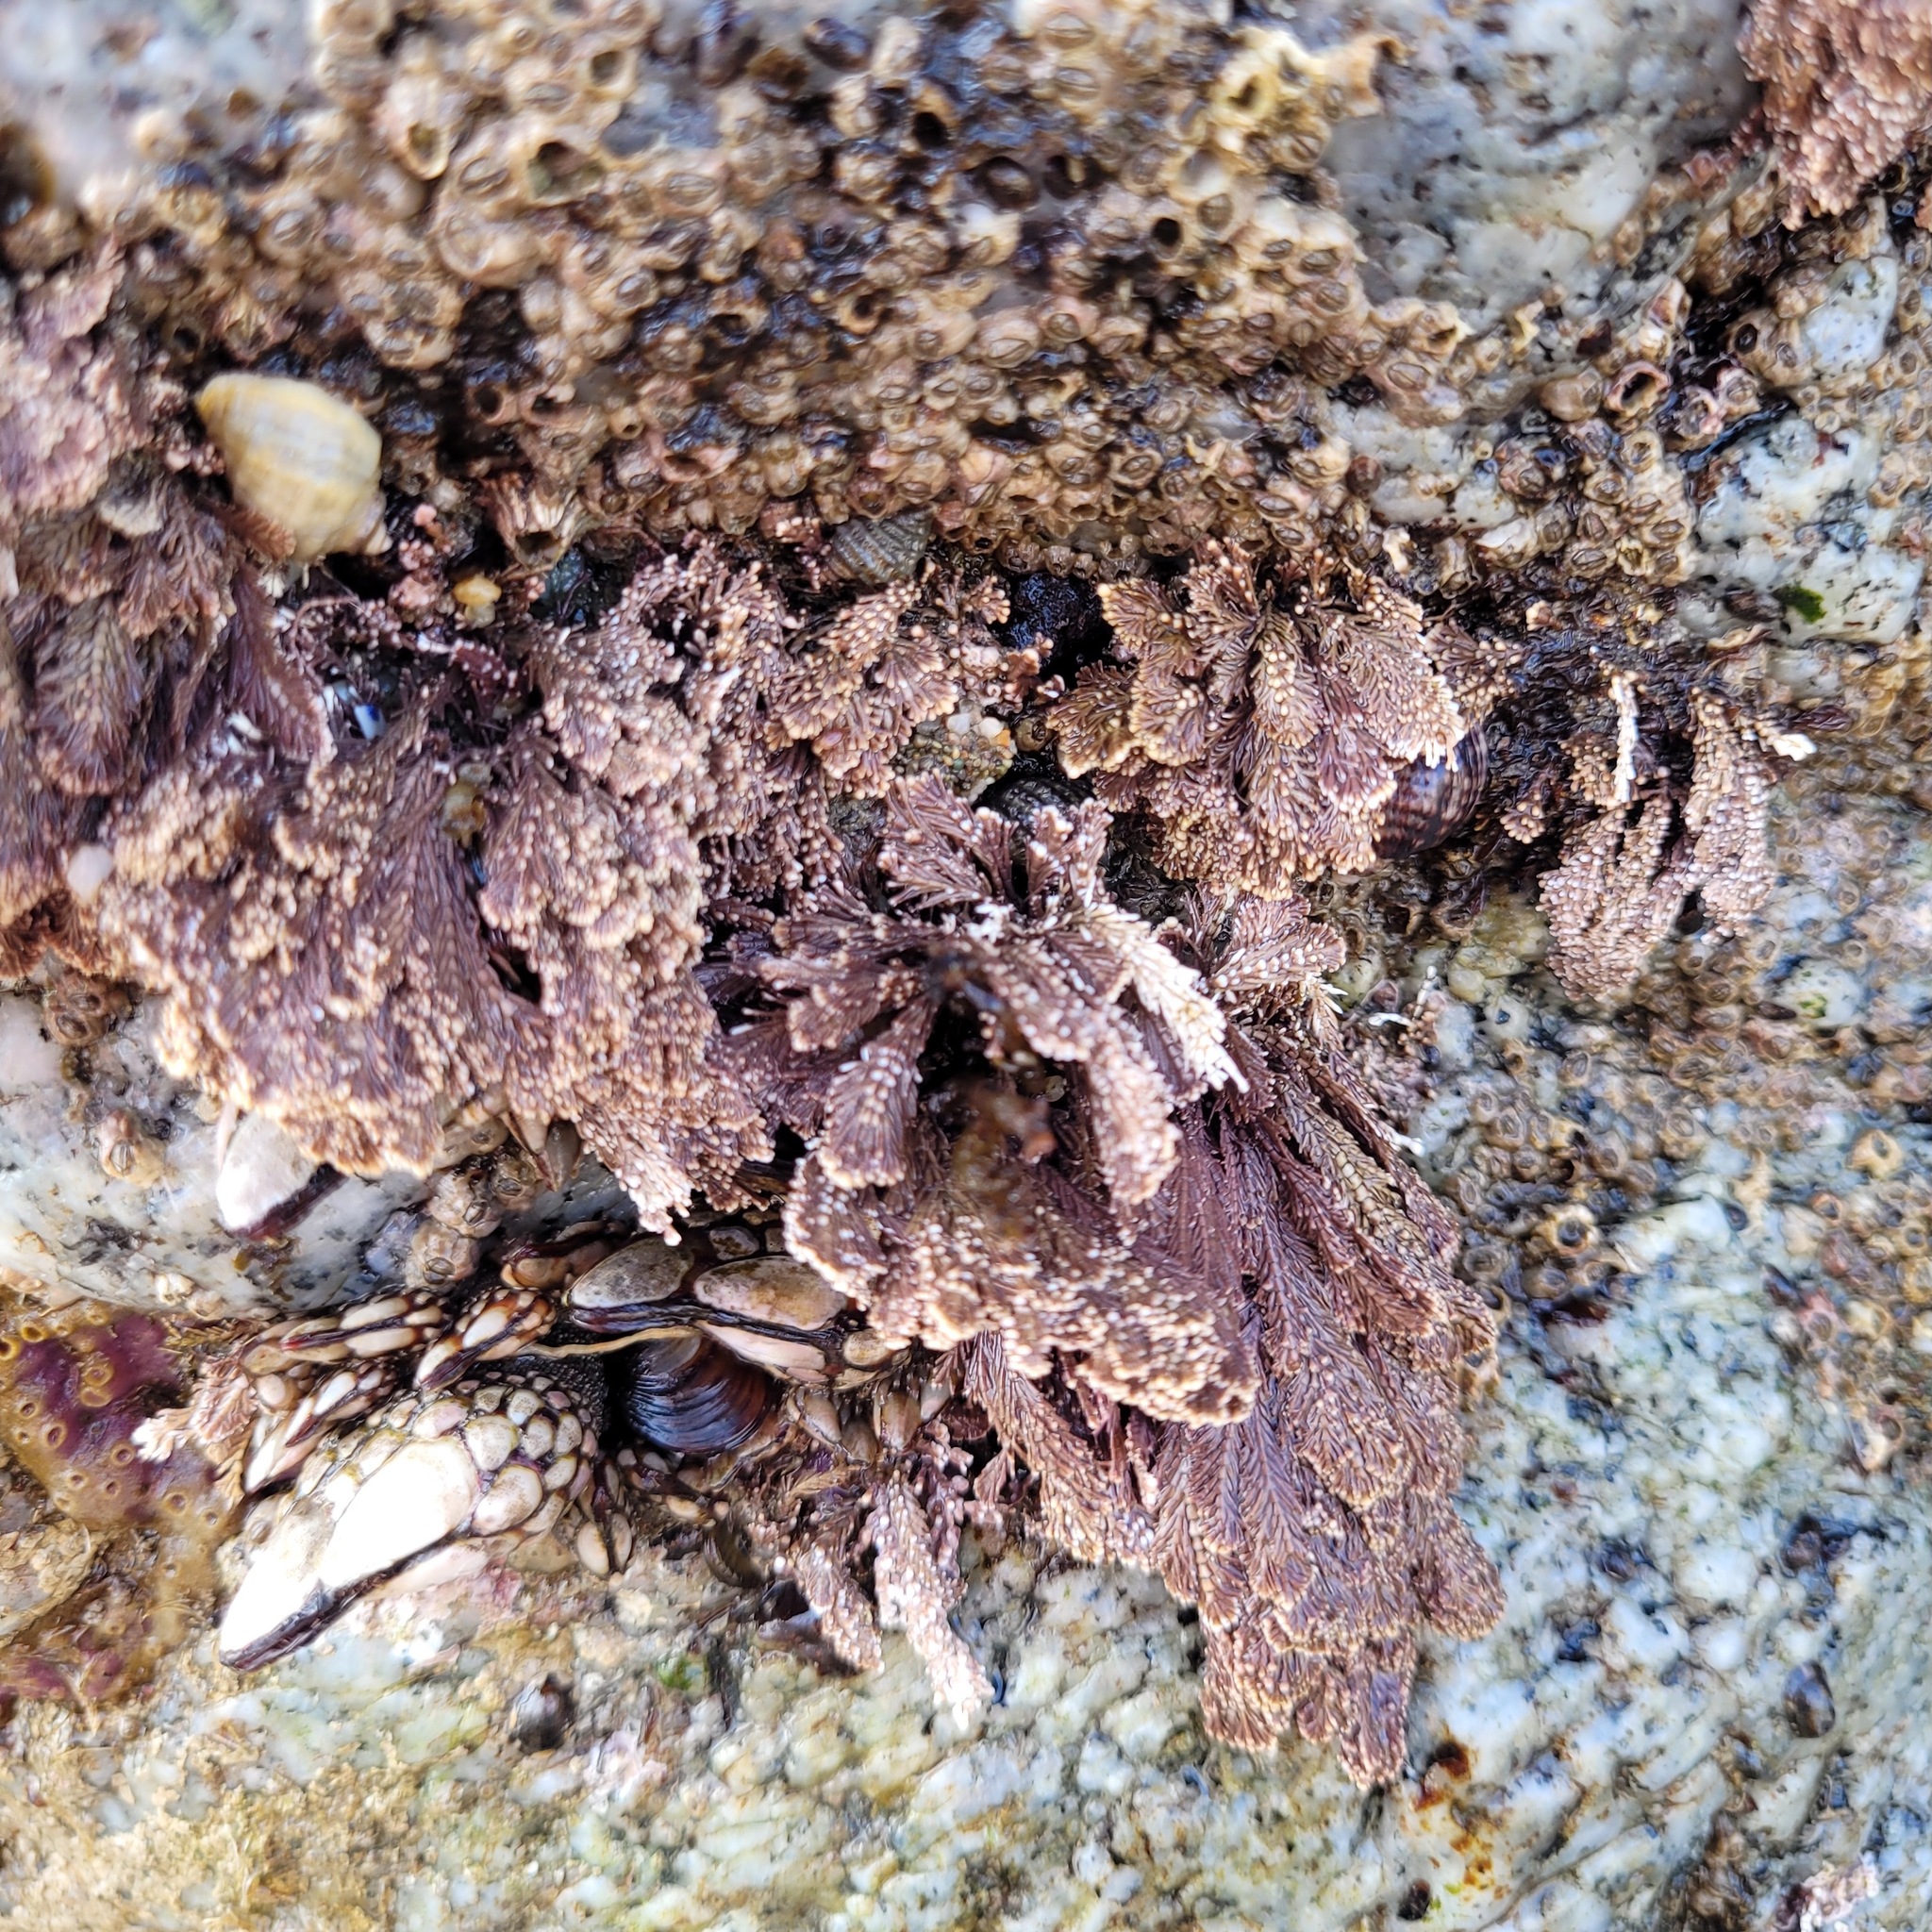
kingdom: Animalia
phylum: Arthropoda
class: Maxillopoda
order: Pedunculata
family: Pollicipedidae
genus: Pollicipes
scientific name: Pollicipes polymerus
